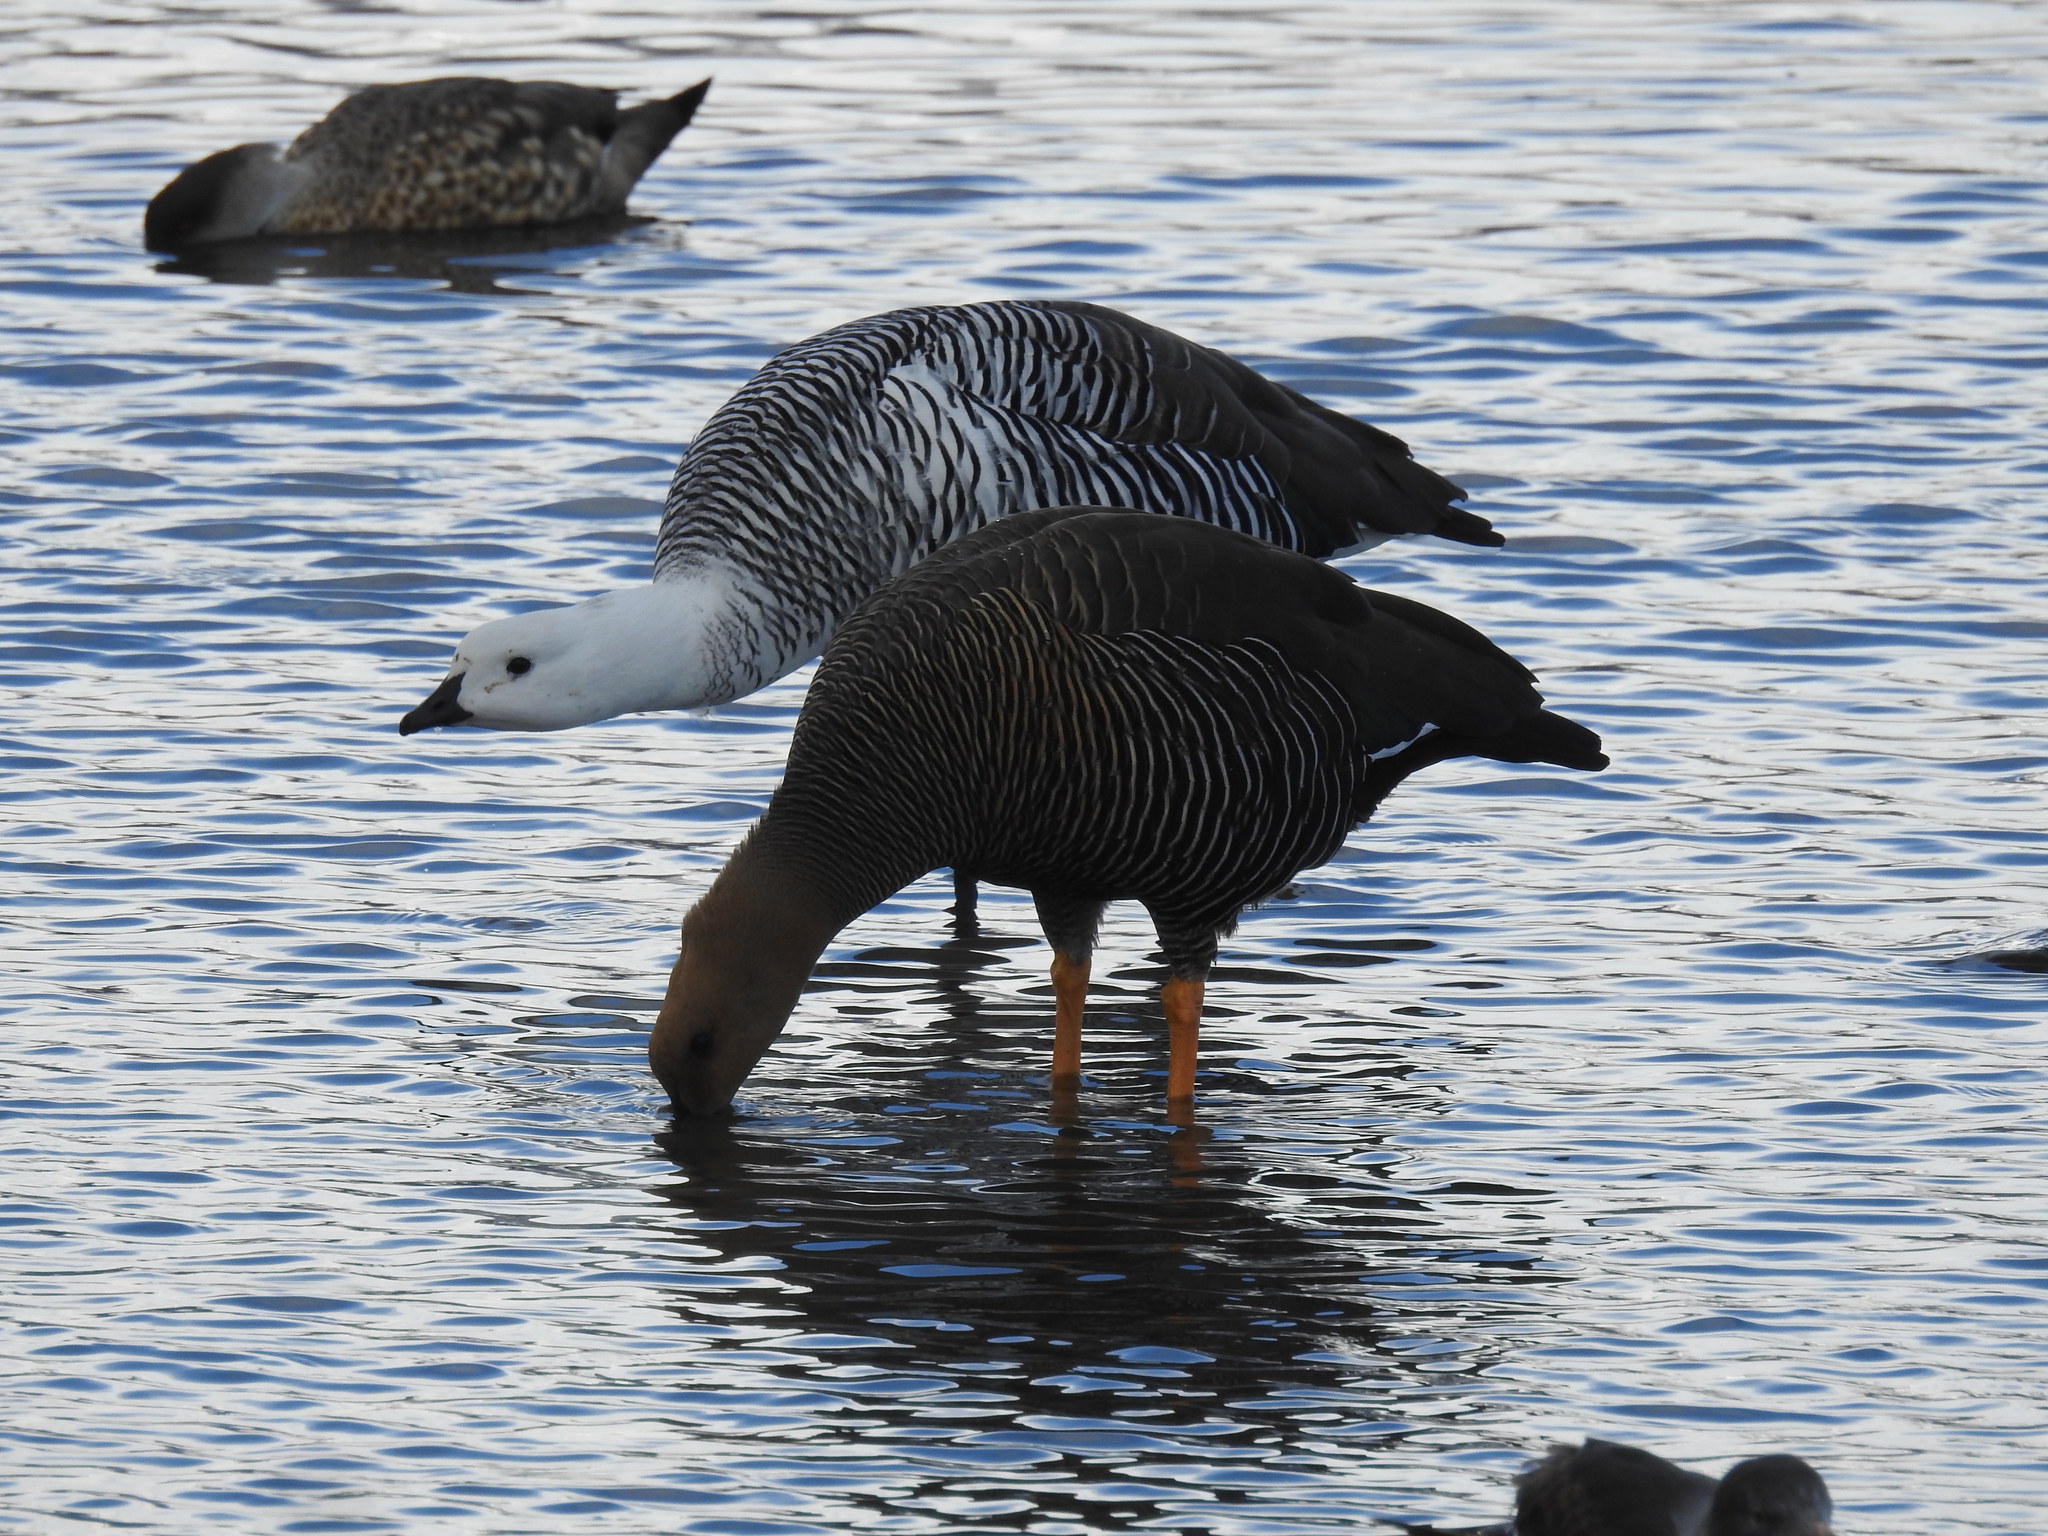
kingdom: Animalia
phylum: Chordata
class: Aves
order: Anseriformes
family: Anatidae
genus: Chloephaga
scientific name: Chloephaga picta
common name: Upland goose
